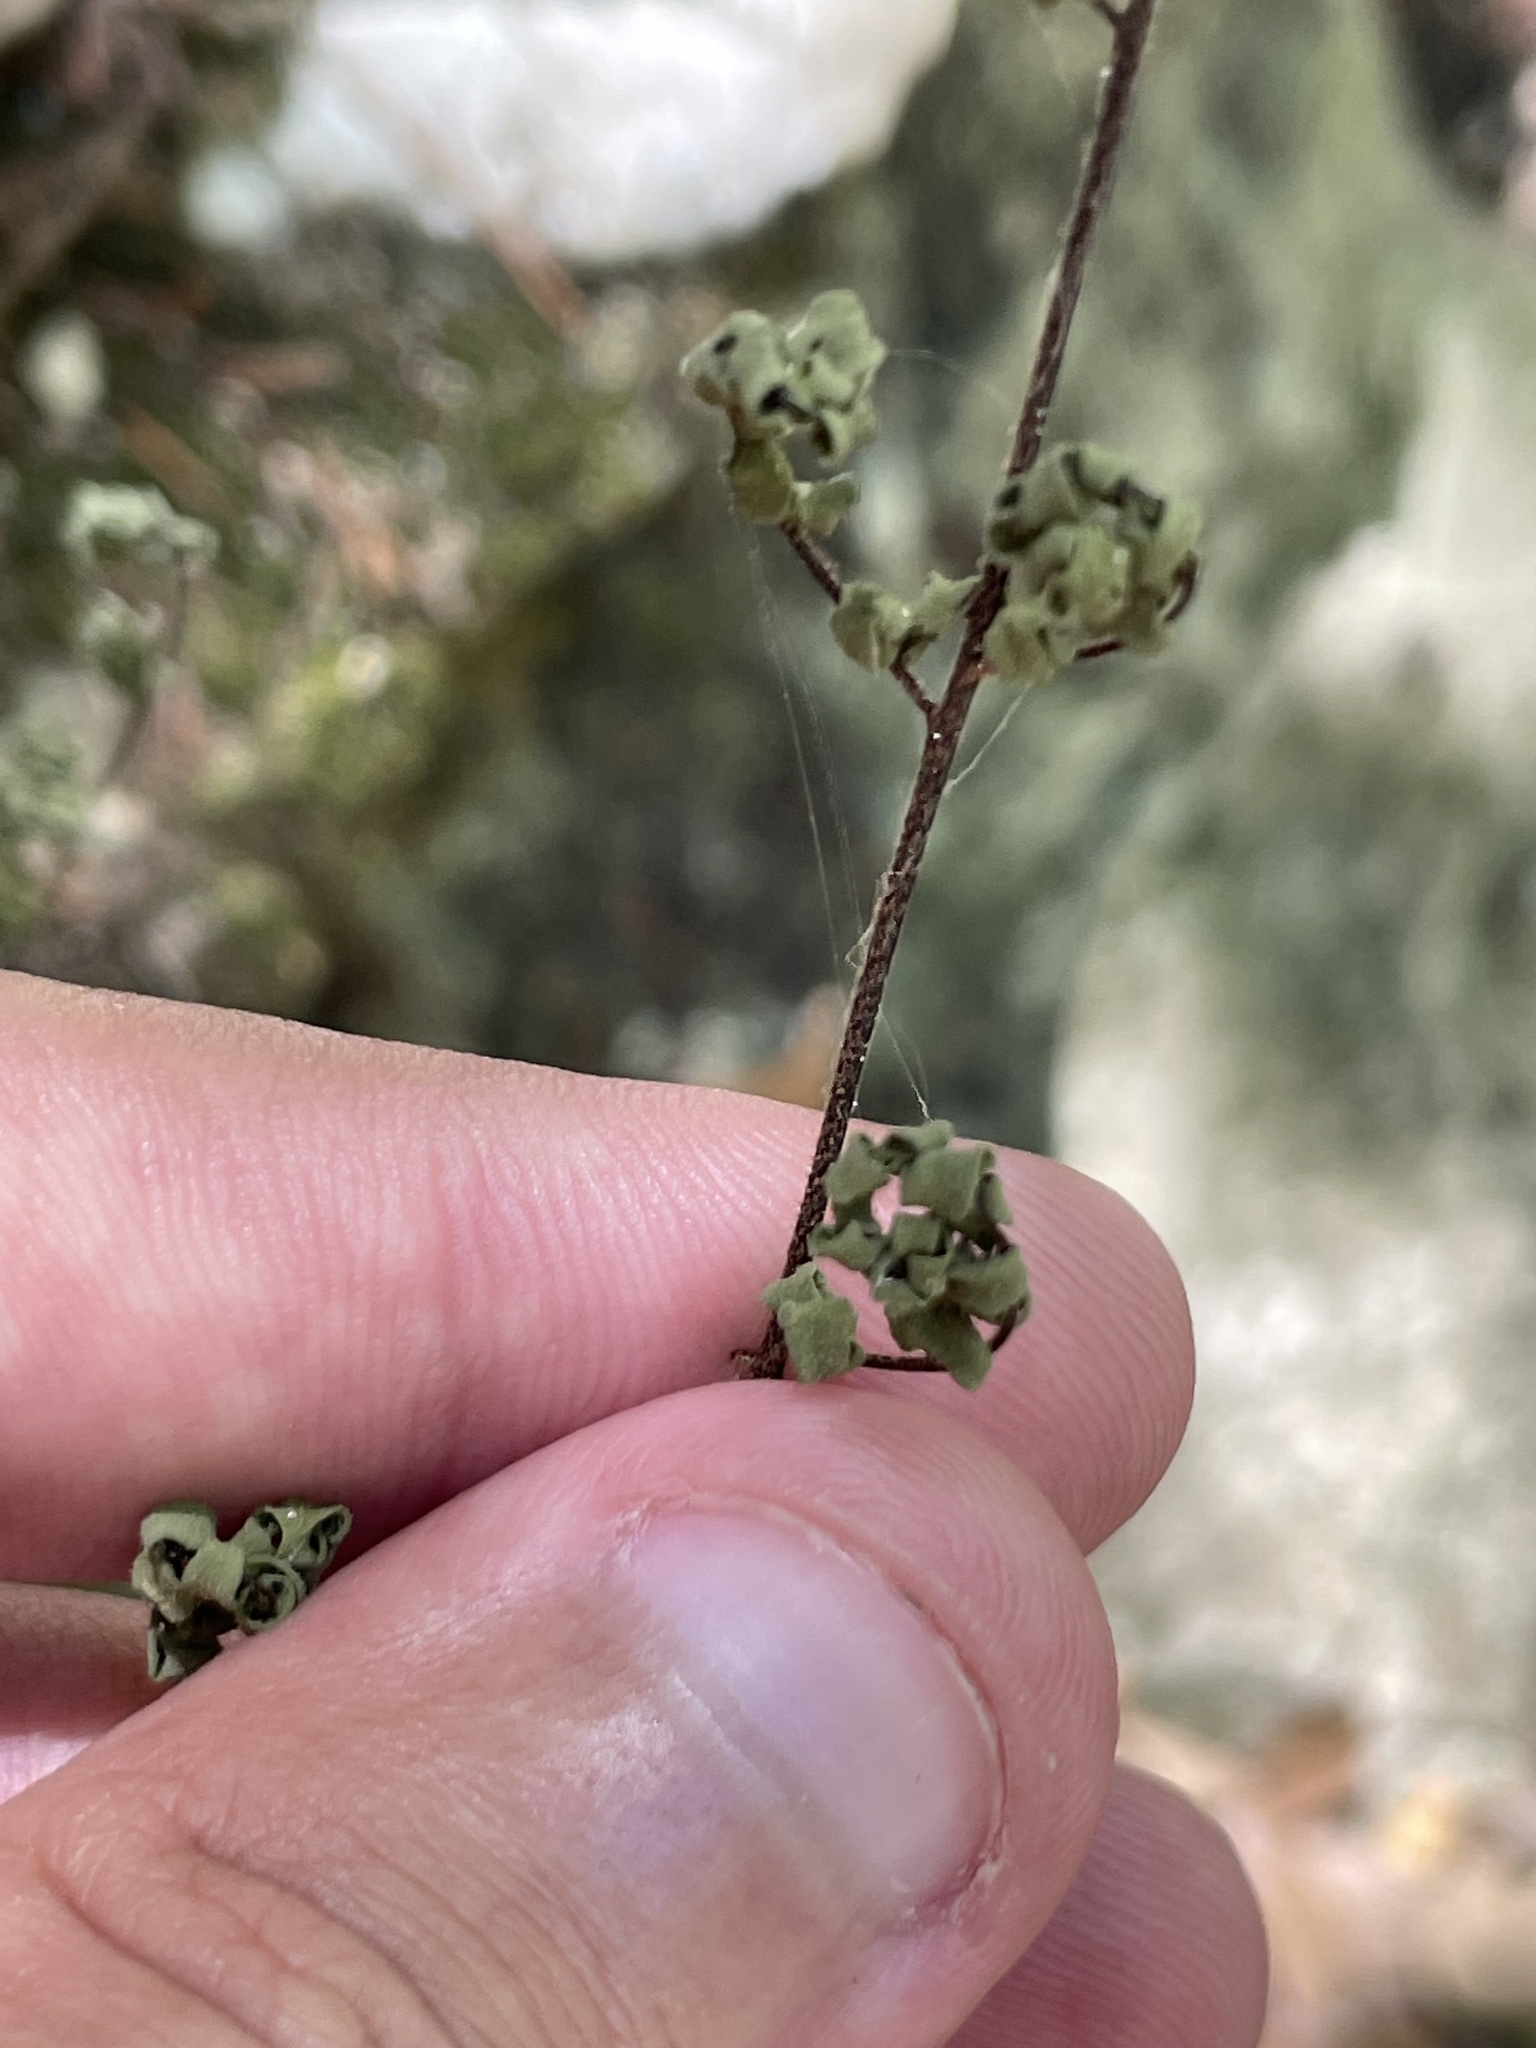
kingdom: Plantae
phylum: Tracheophyta
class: Polypodiopsida
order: Polypodiales
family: Pteridaceae
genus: Myriopteris
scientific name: Myriopteris alabamensis
